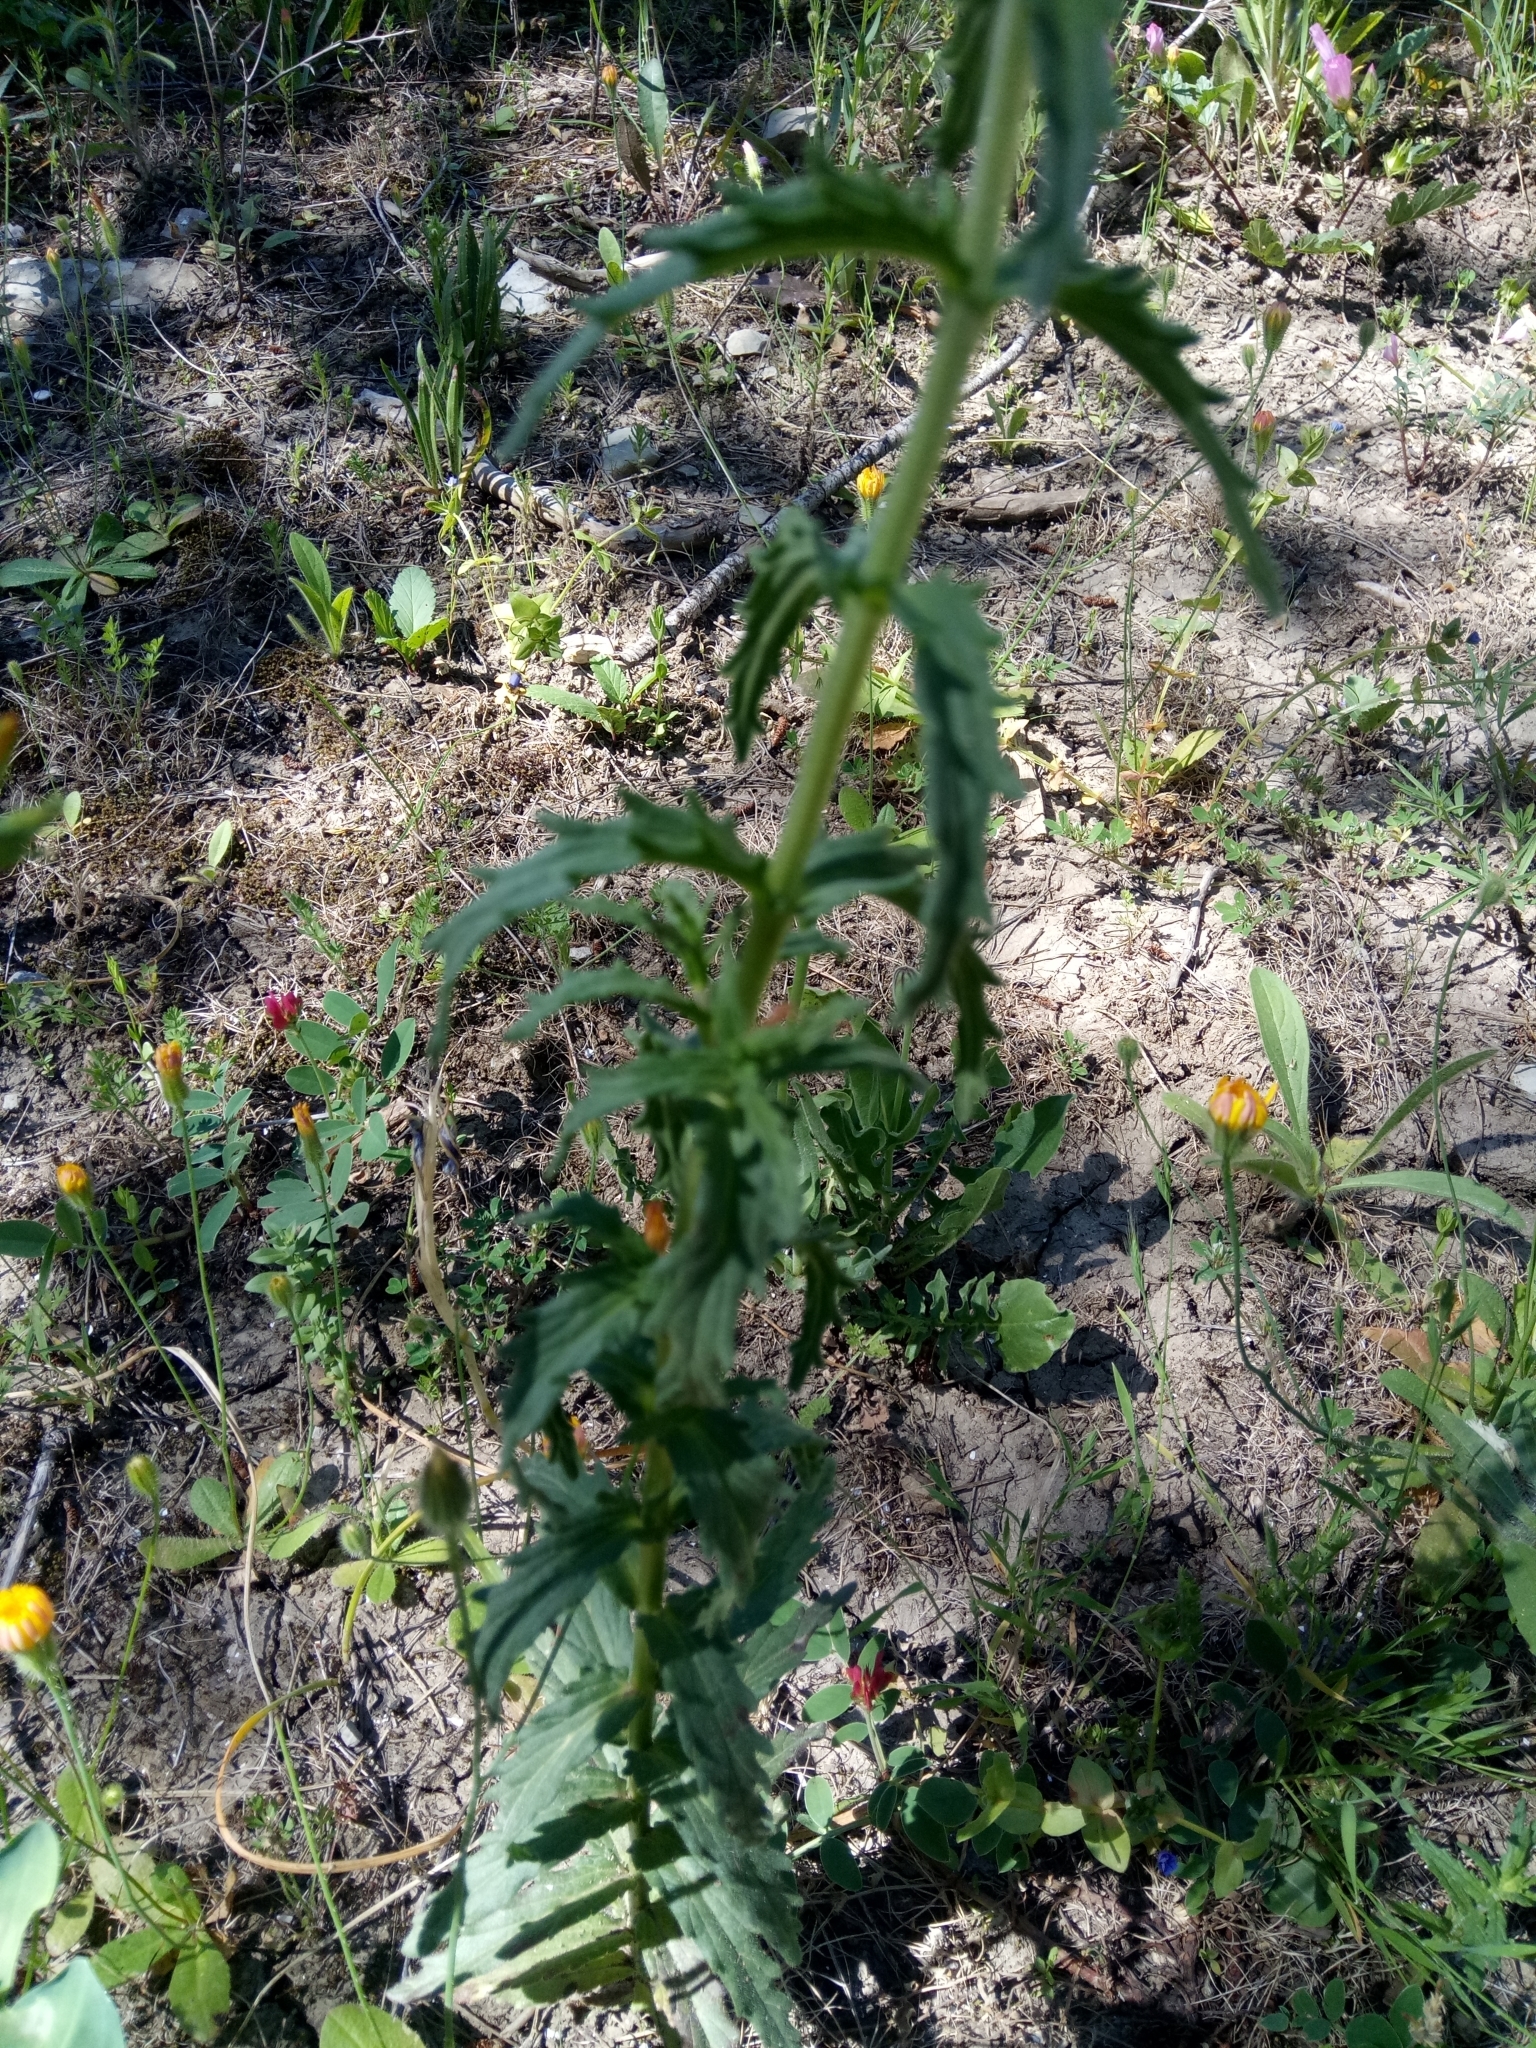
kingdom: Plantae
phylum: Tracheophyta
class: Magnoliopsida
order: Lamiales
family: Orobanchaceae
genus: Bellardia
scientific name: Bellardia trixago
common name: Mediterranean lineseed
